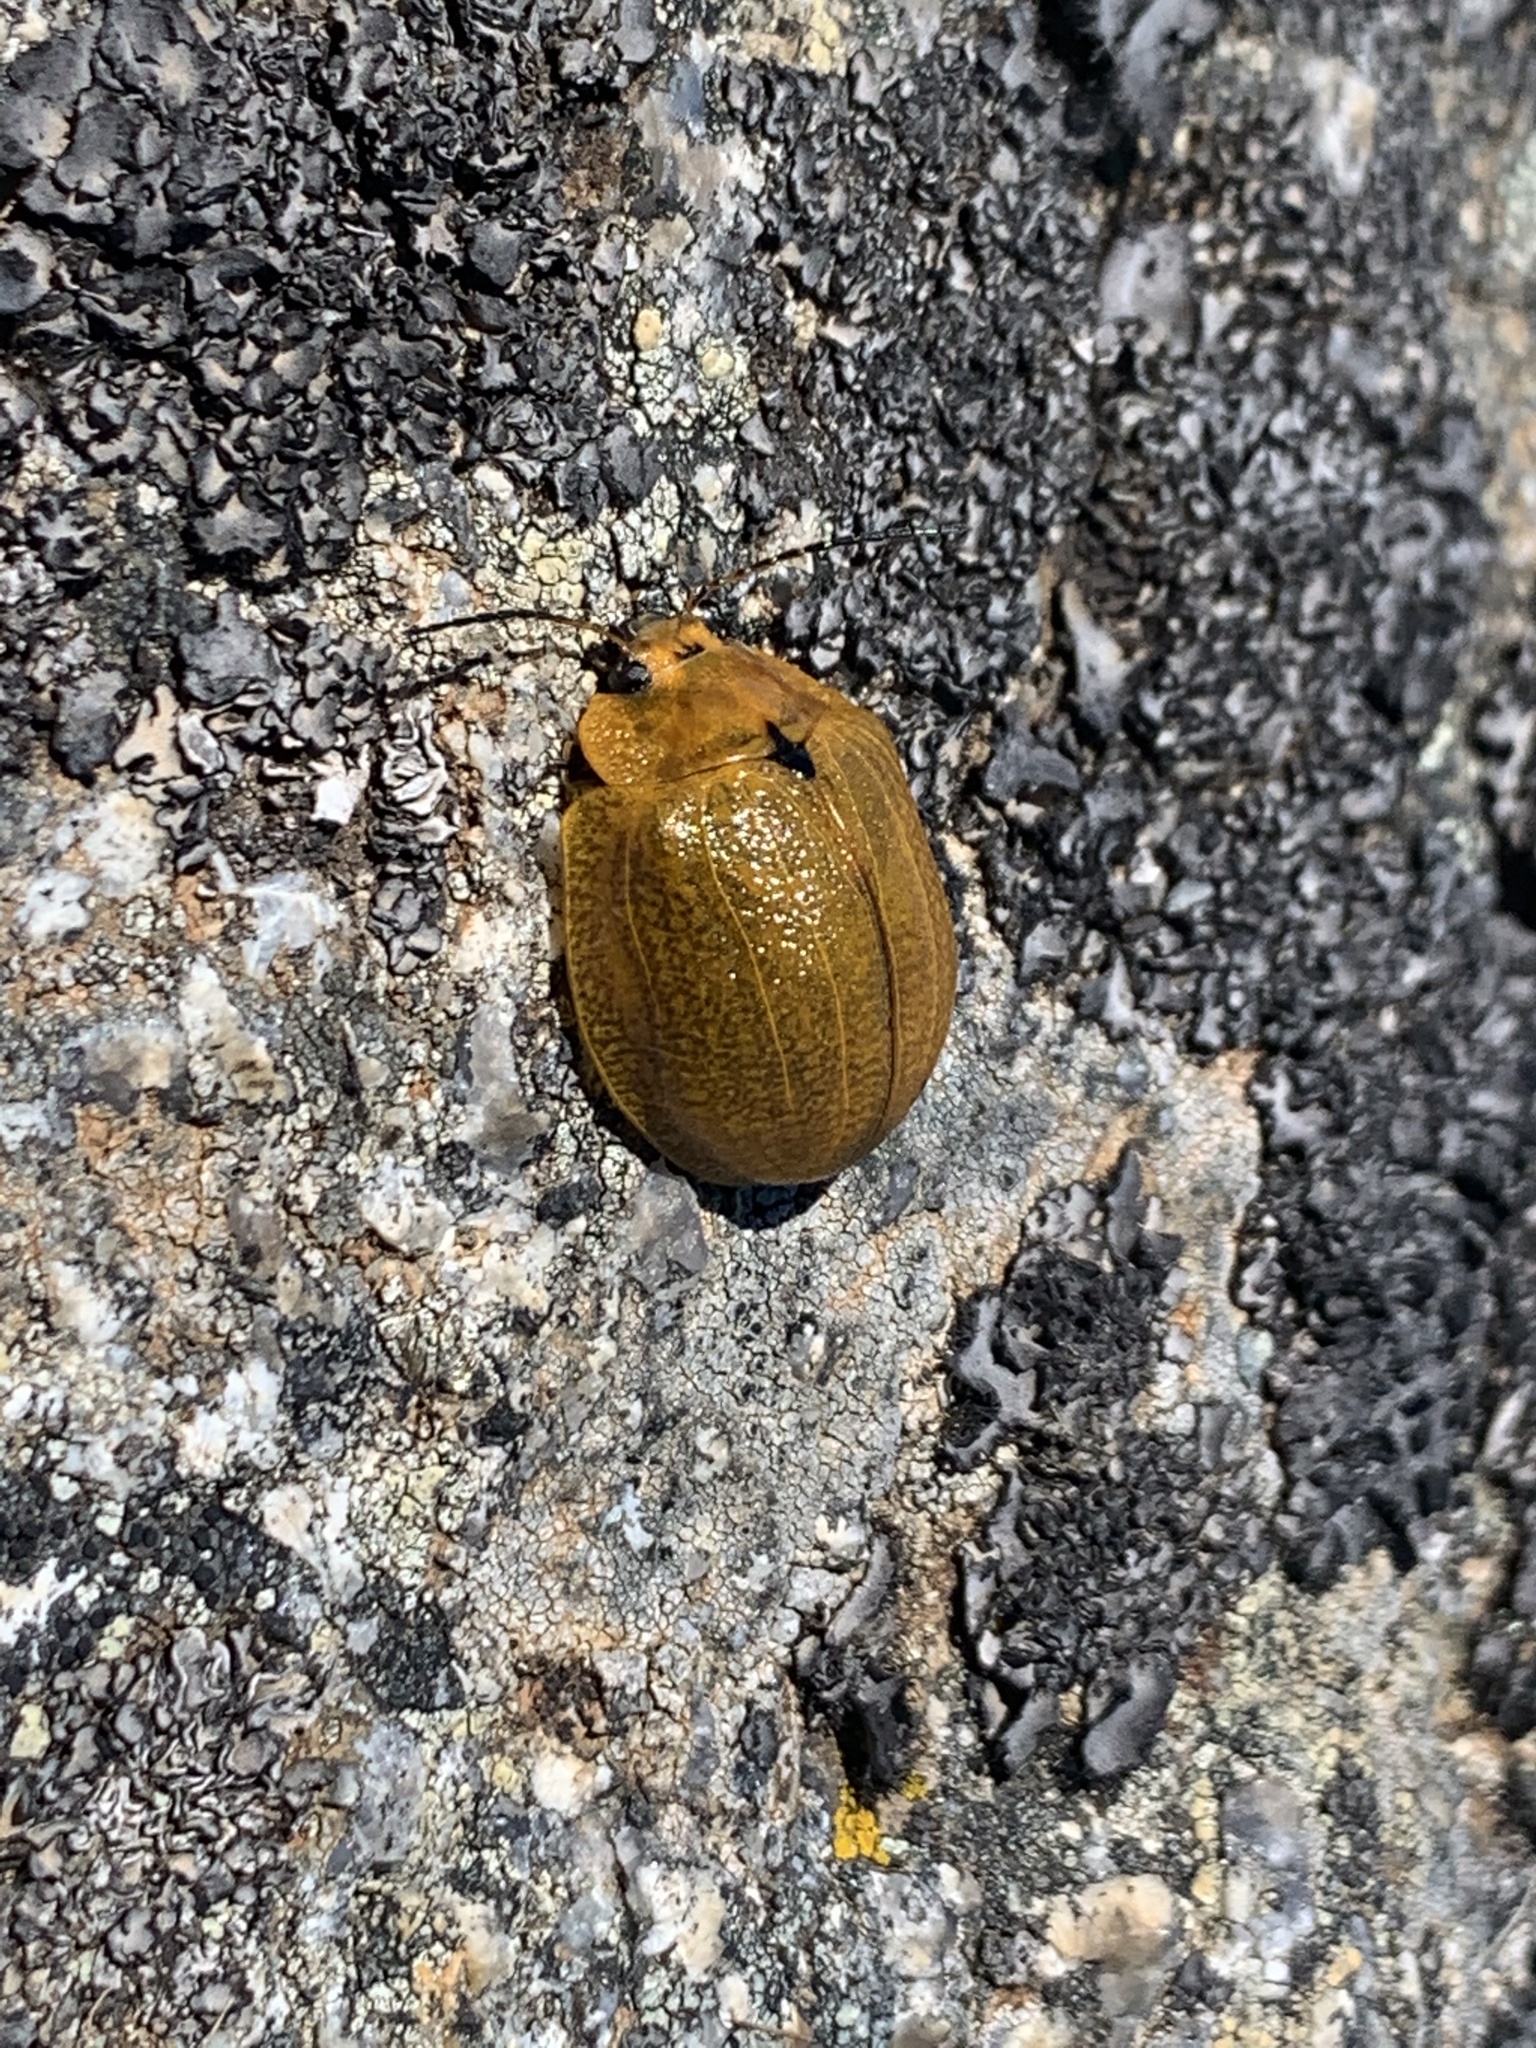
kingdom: Animalia
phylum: Arthropoda
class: Insecta
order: Coleoptera
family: Chrysomelidae
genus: Paropsis
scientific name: Paropsis
